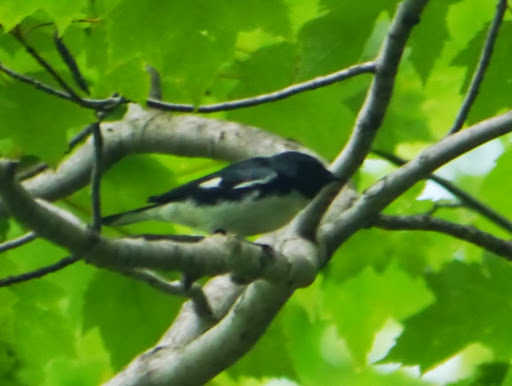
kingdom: Animalia
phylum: Chordata
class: Aves
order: Passeriformes
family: Parulidae
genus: Setophaga
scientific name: Setophaga caerulescens
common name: Black-throated blue warbler
